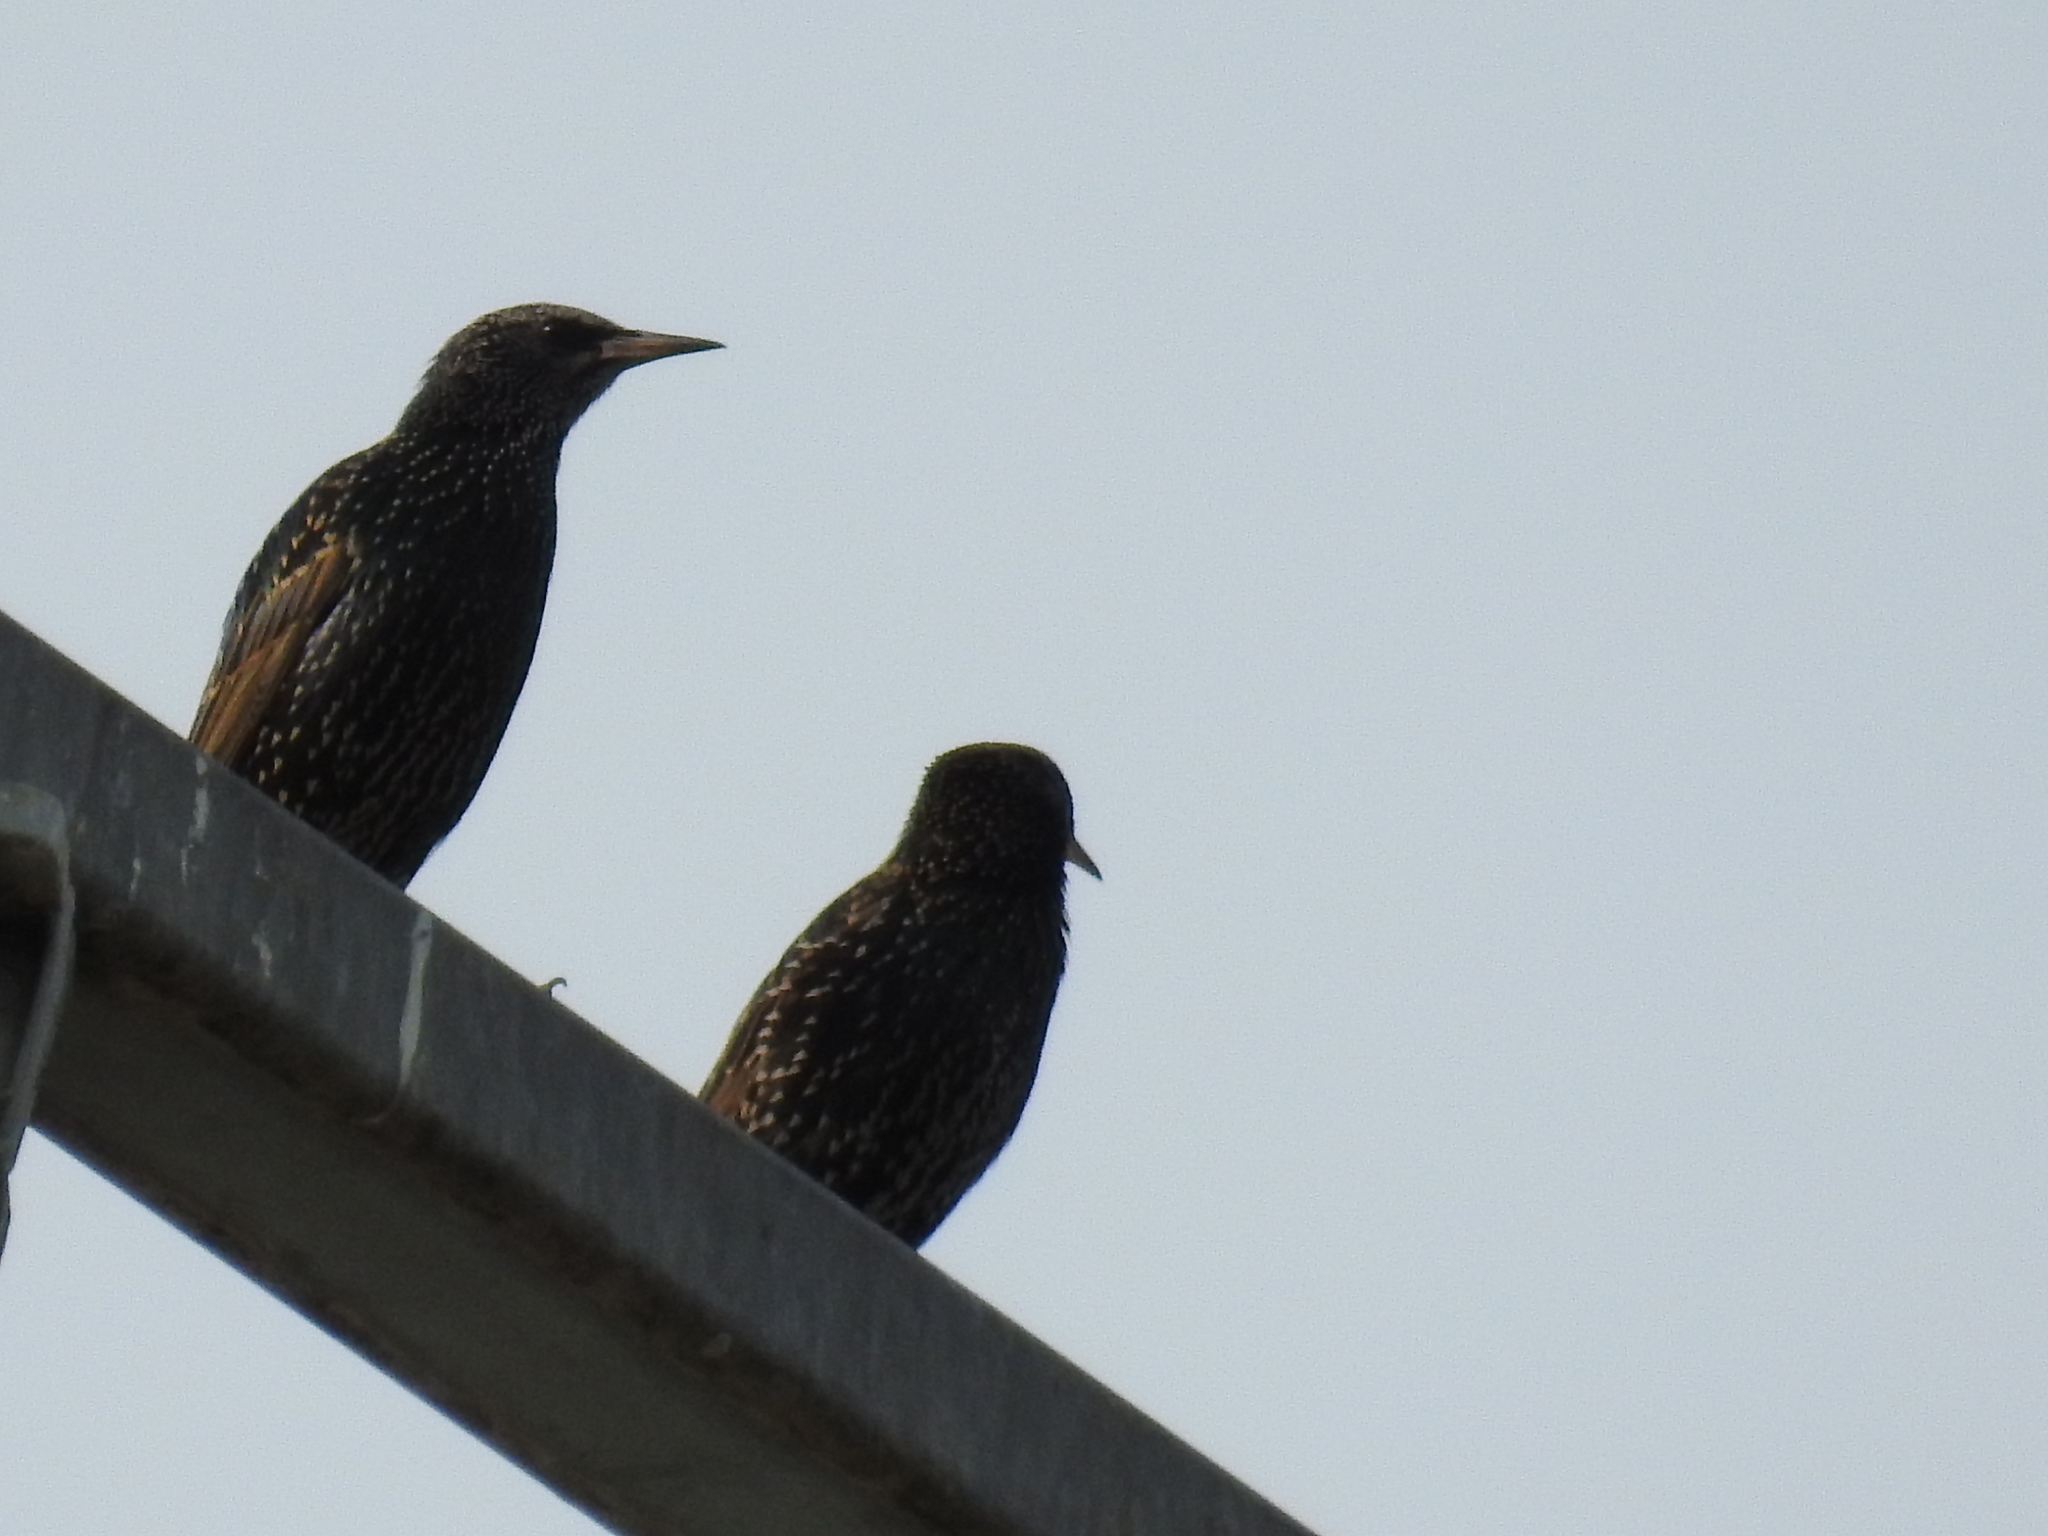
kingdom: Animalia
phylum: Chordata
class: Aves
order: Passeriformes
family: Sturnidae
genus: Sturnus
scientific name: Sturnus vulgaris
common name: Common starling
